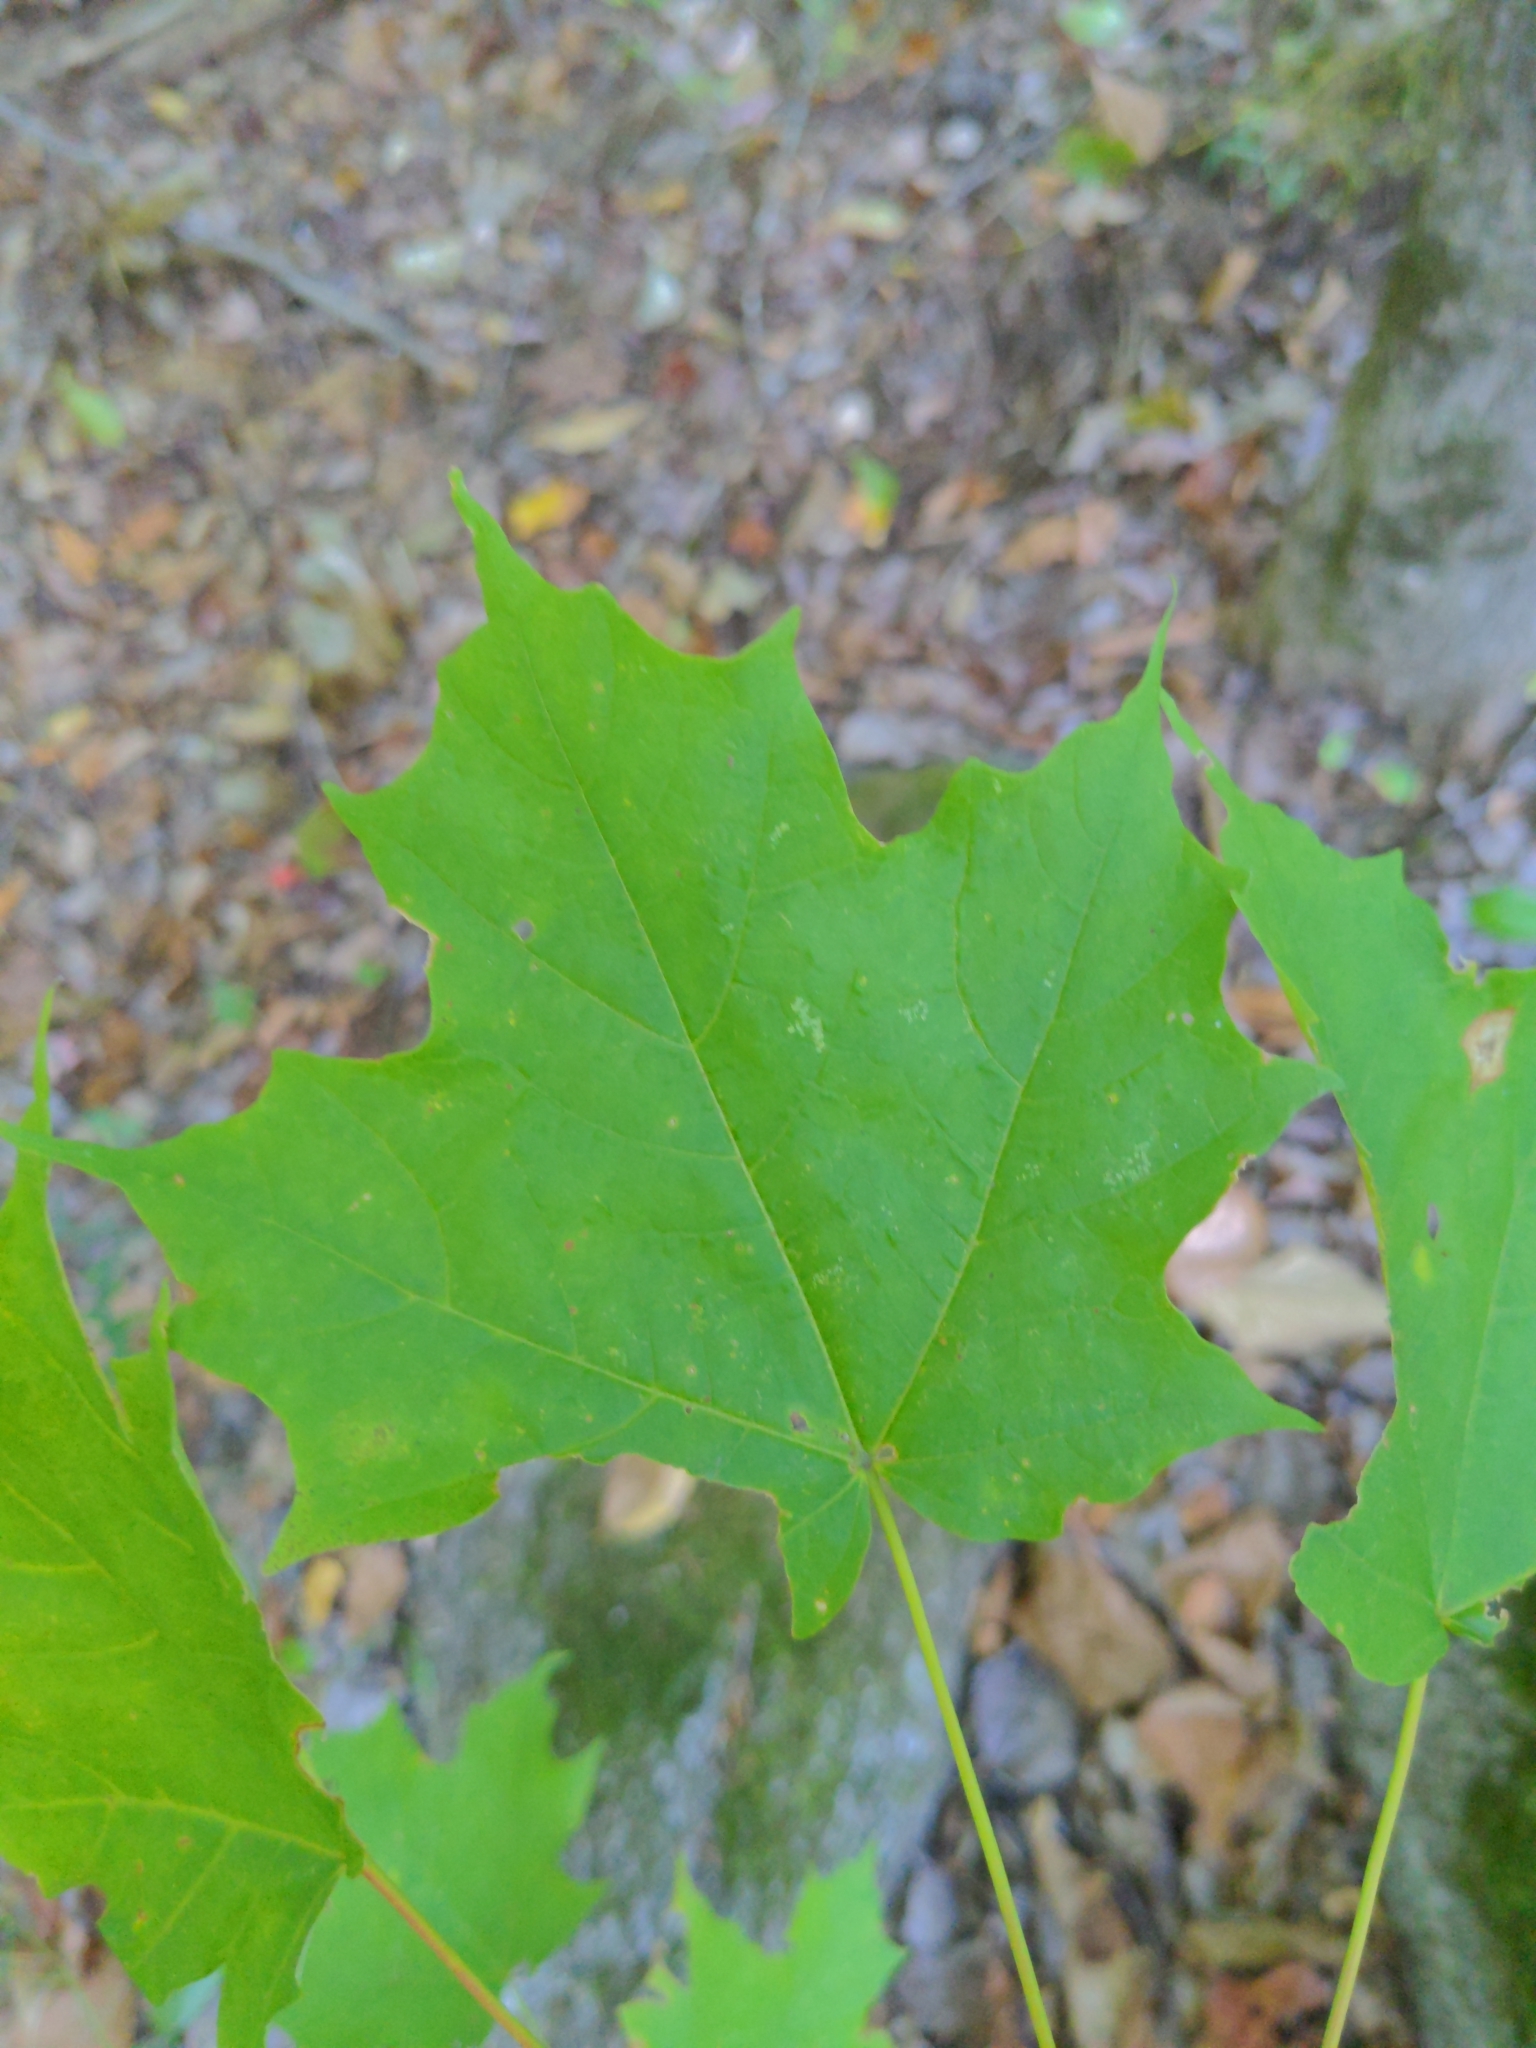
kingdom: Plantae
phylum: Tracheophyta
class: Magnoliopsida
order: Sapindales
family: Sapindaceae
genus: Acer
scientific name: Acer saccharum
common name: Sugar maple
